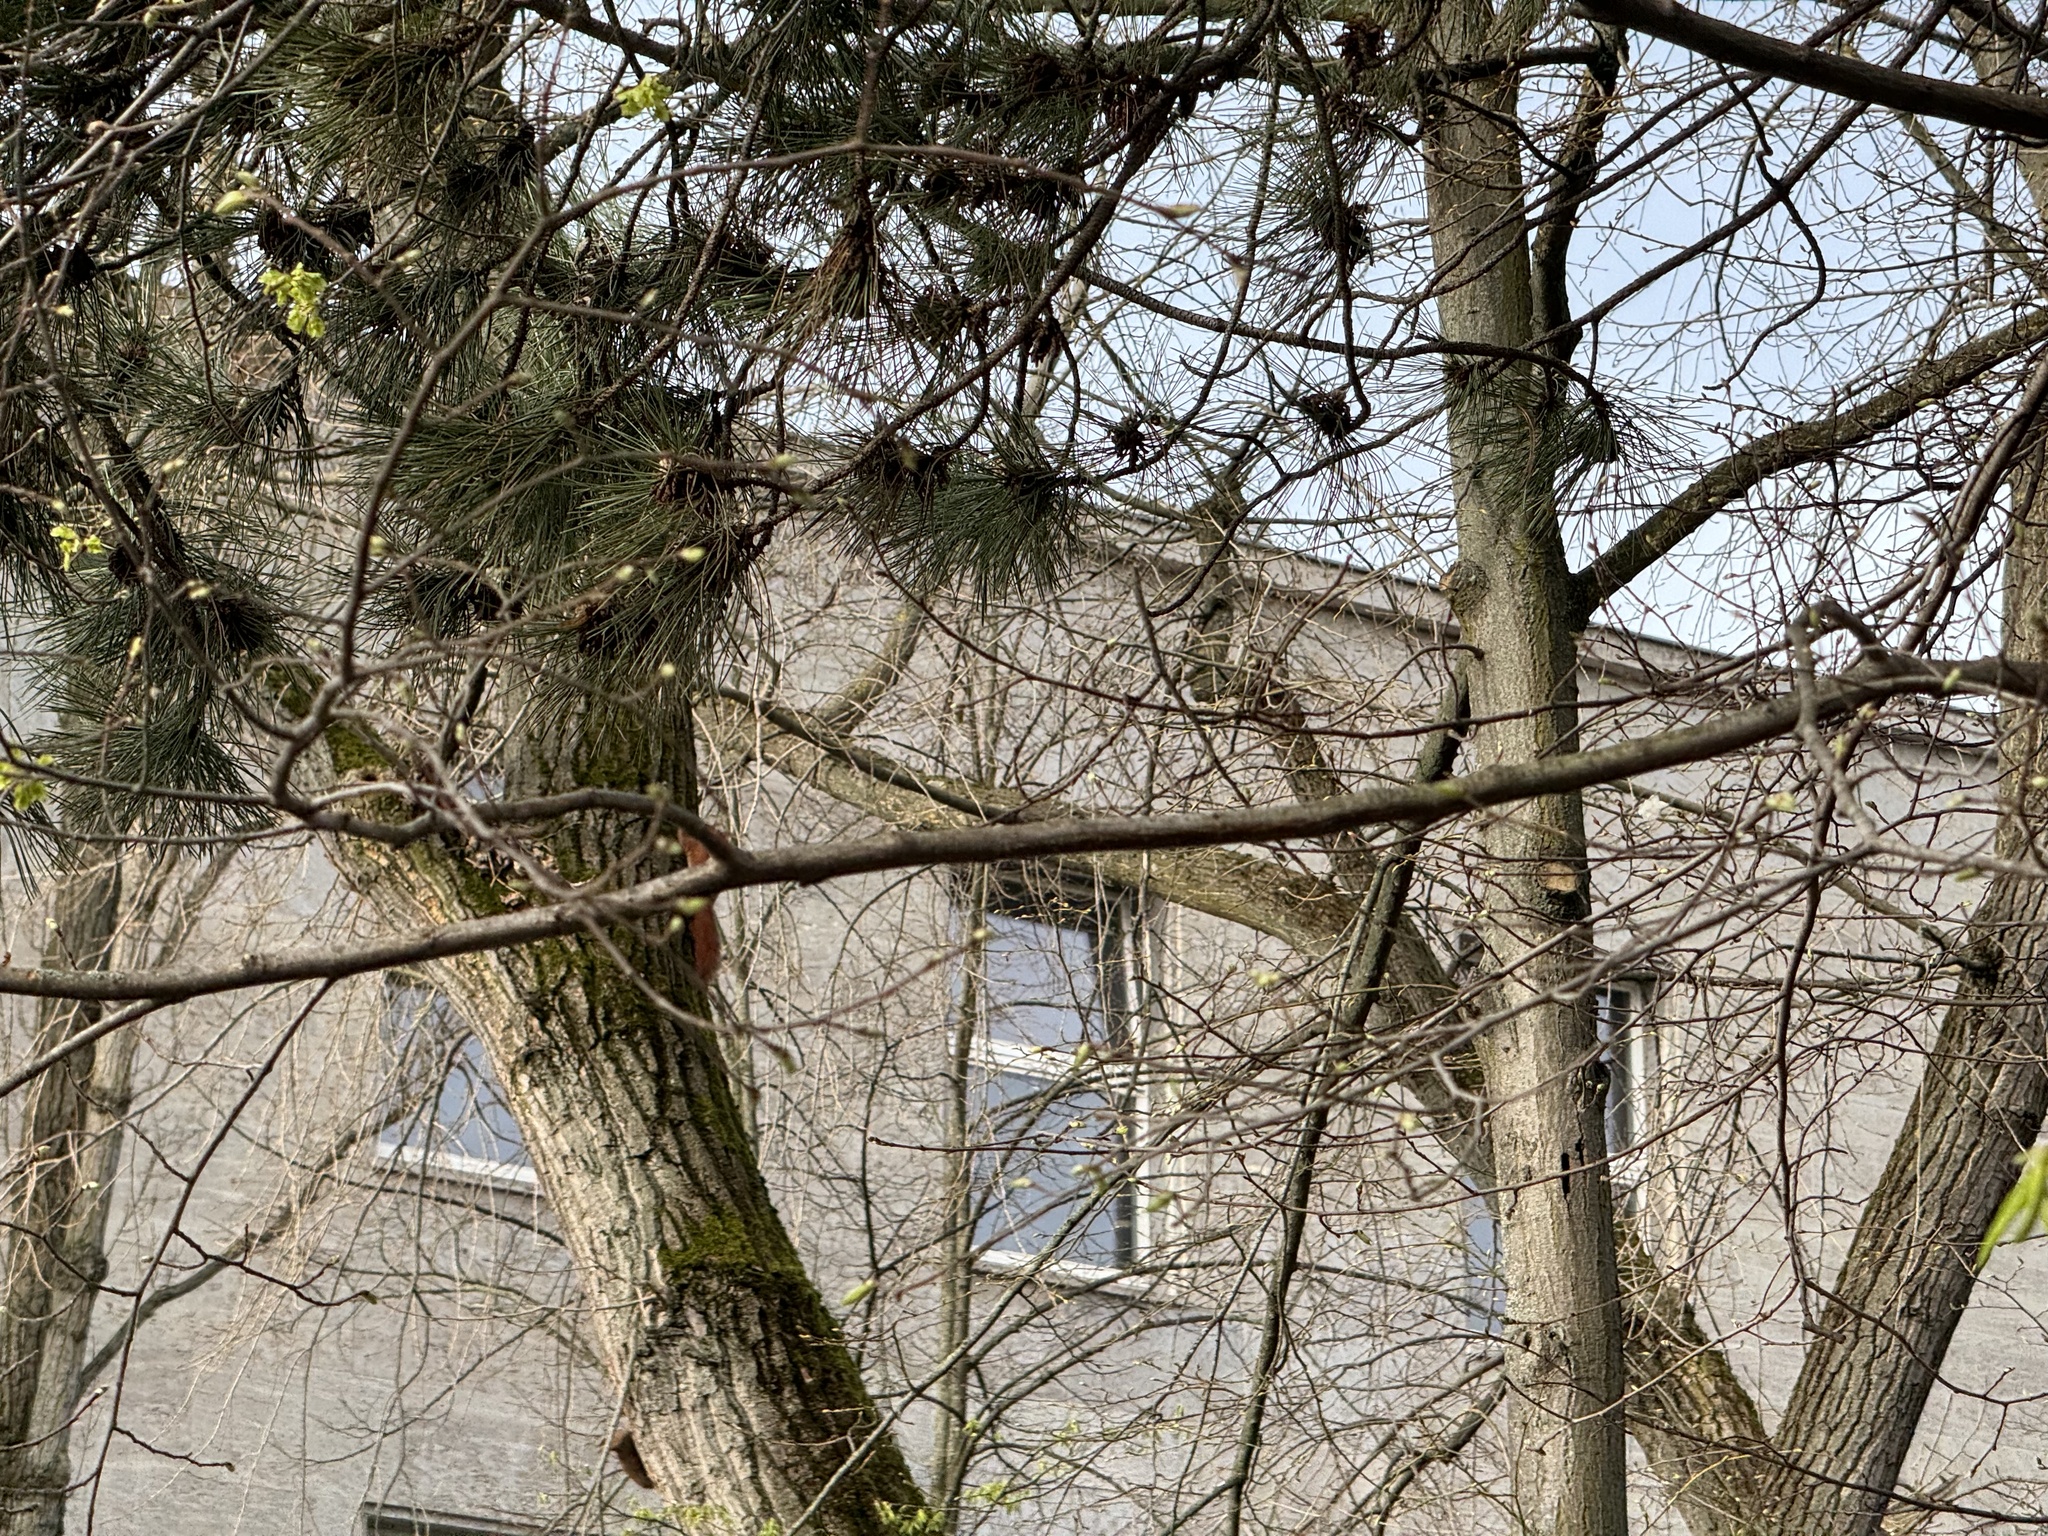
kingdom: Animalia
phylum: Chordata
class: Mammalia
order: Rodentia
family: Sciuridae
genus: Sciurus
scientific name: Sciurus vulgaris
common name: Eurasian red squirrel
